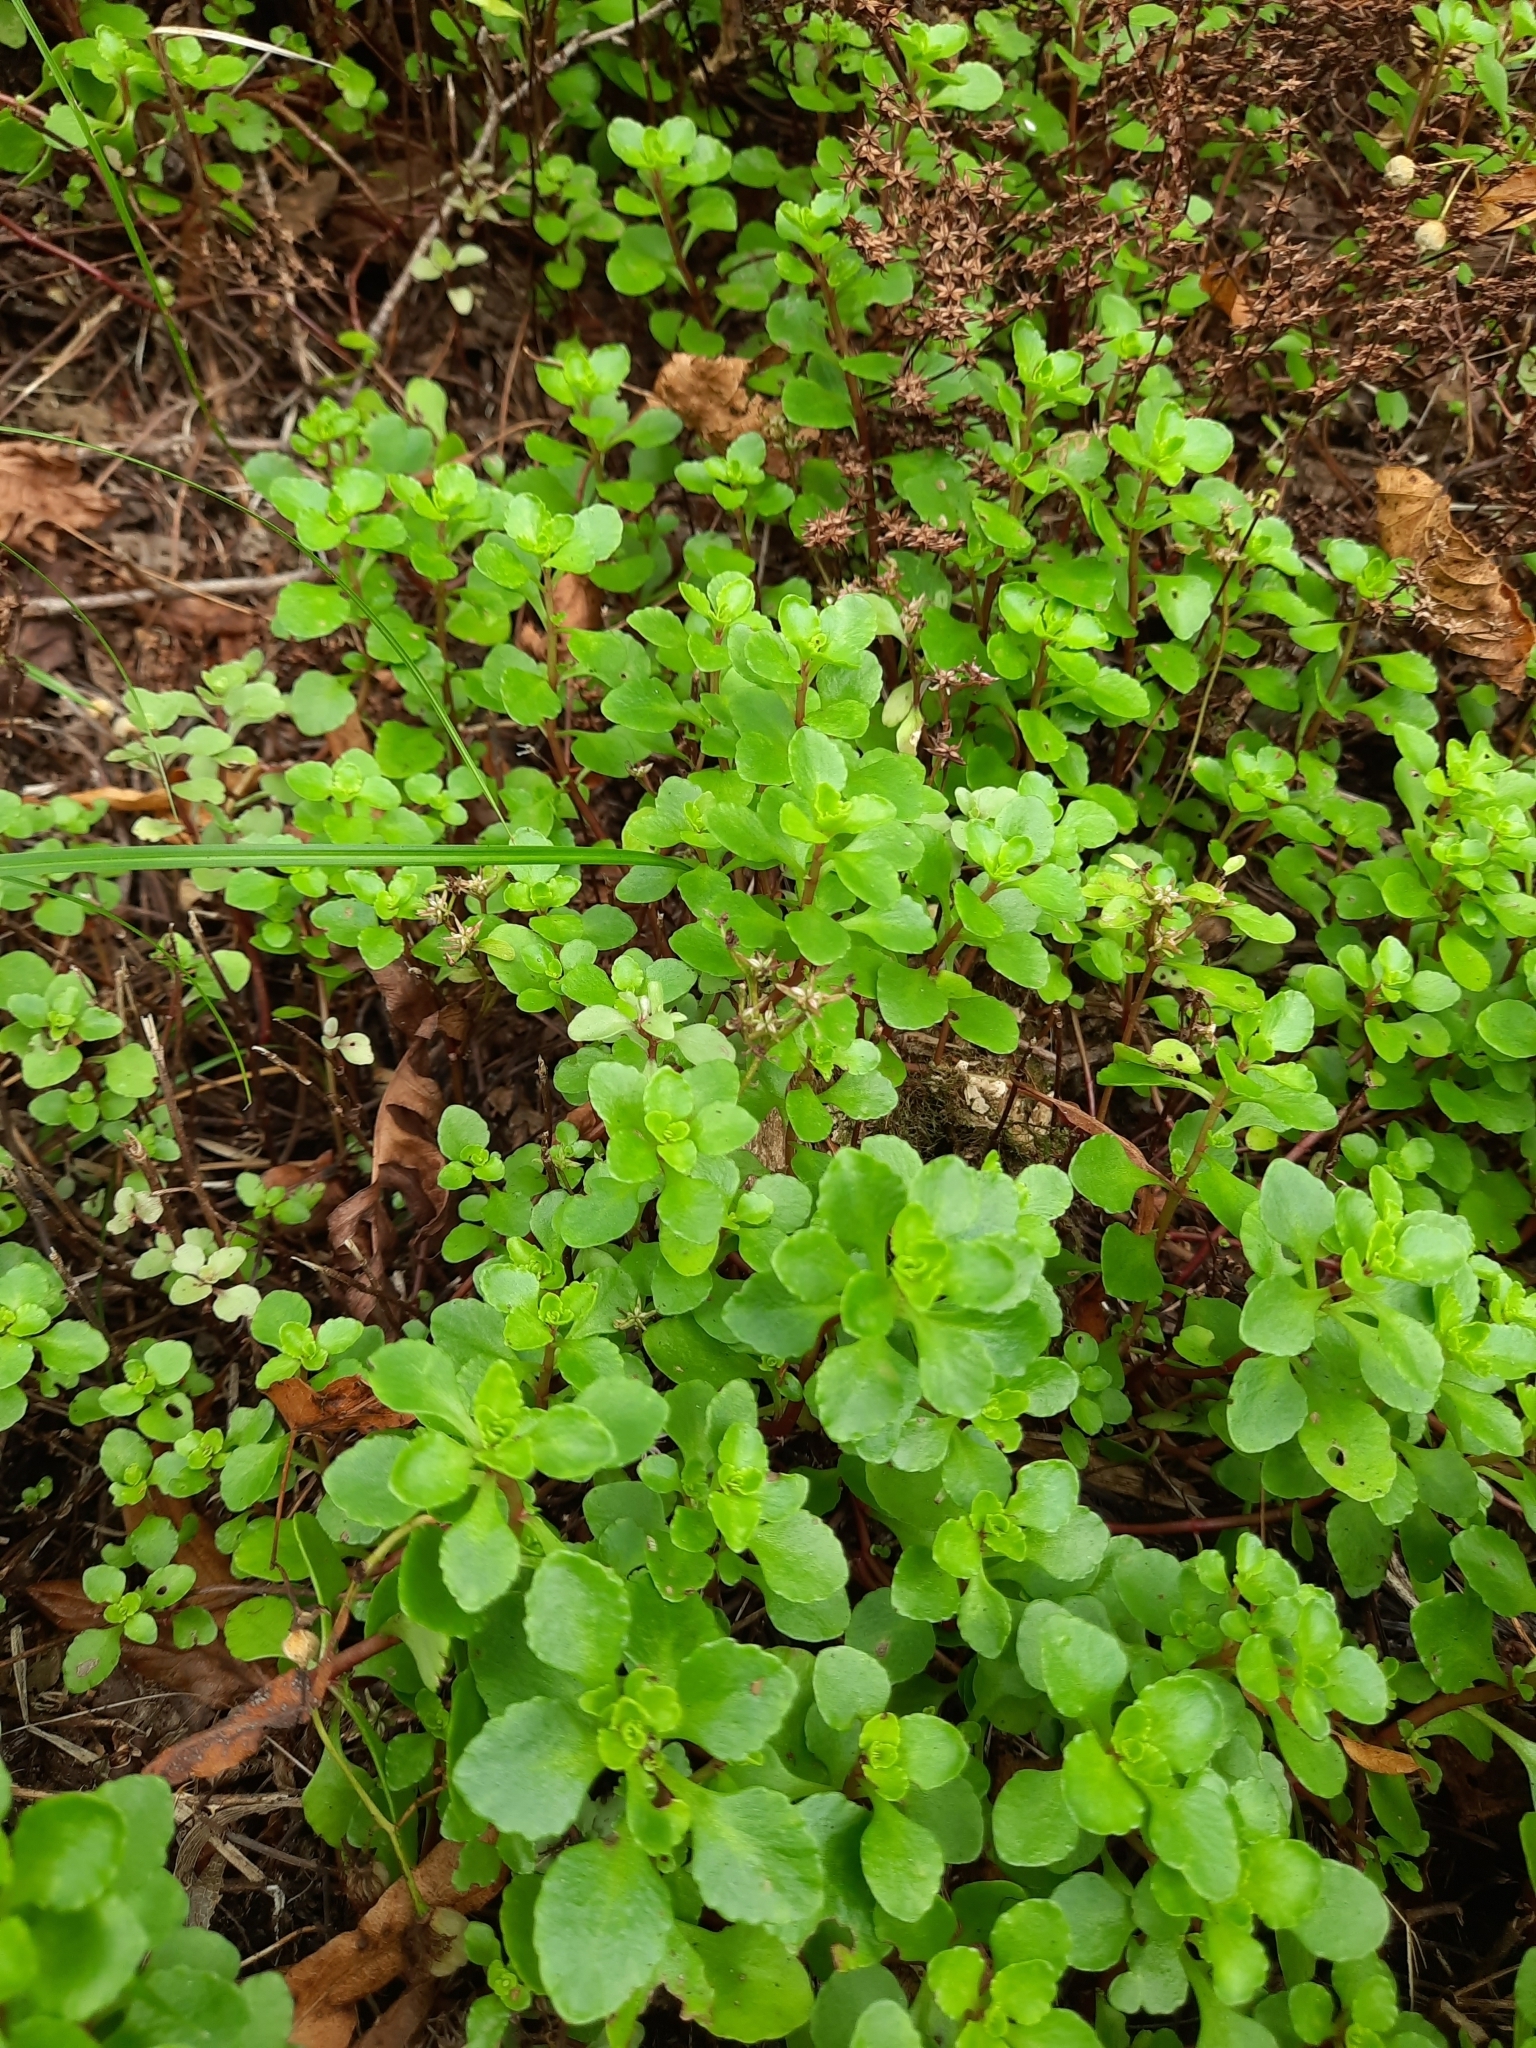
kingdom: Plantae
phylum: Tracheophyta
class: Magnoliopsida
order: Saxifragales
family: Crassulaceae
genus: Phedimus
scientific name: Phedimus stolonifer
